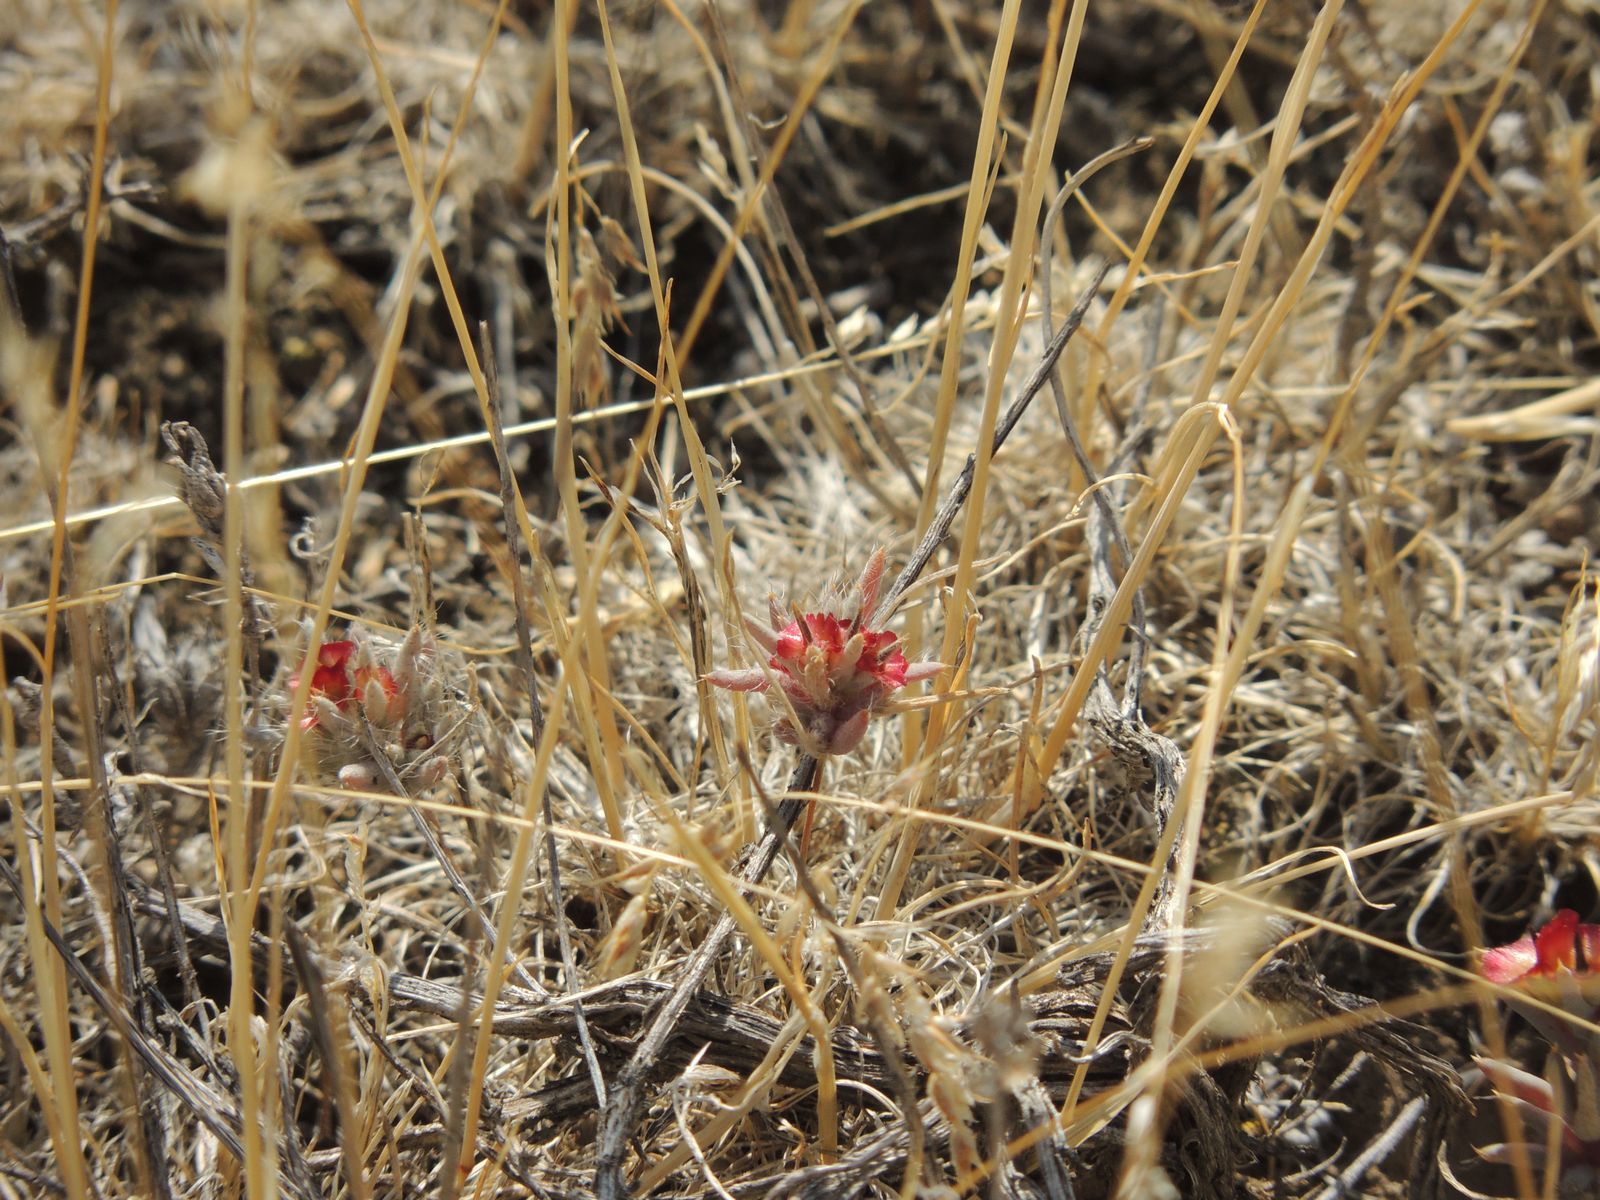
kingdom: Plantae
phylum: Tracheophyta
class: Magnoliopsida
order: Caryophyllales
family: Amaranthaceae
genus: Pyankovia
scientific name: Pyankovia brachiata
